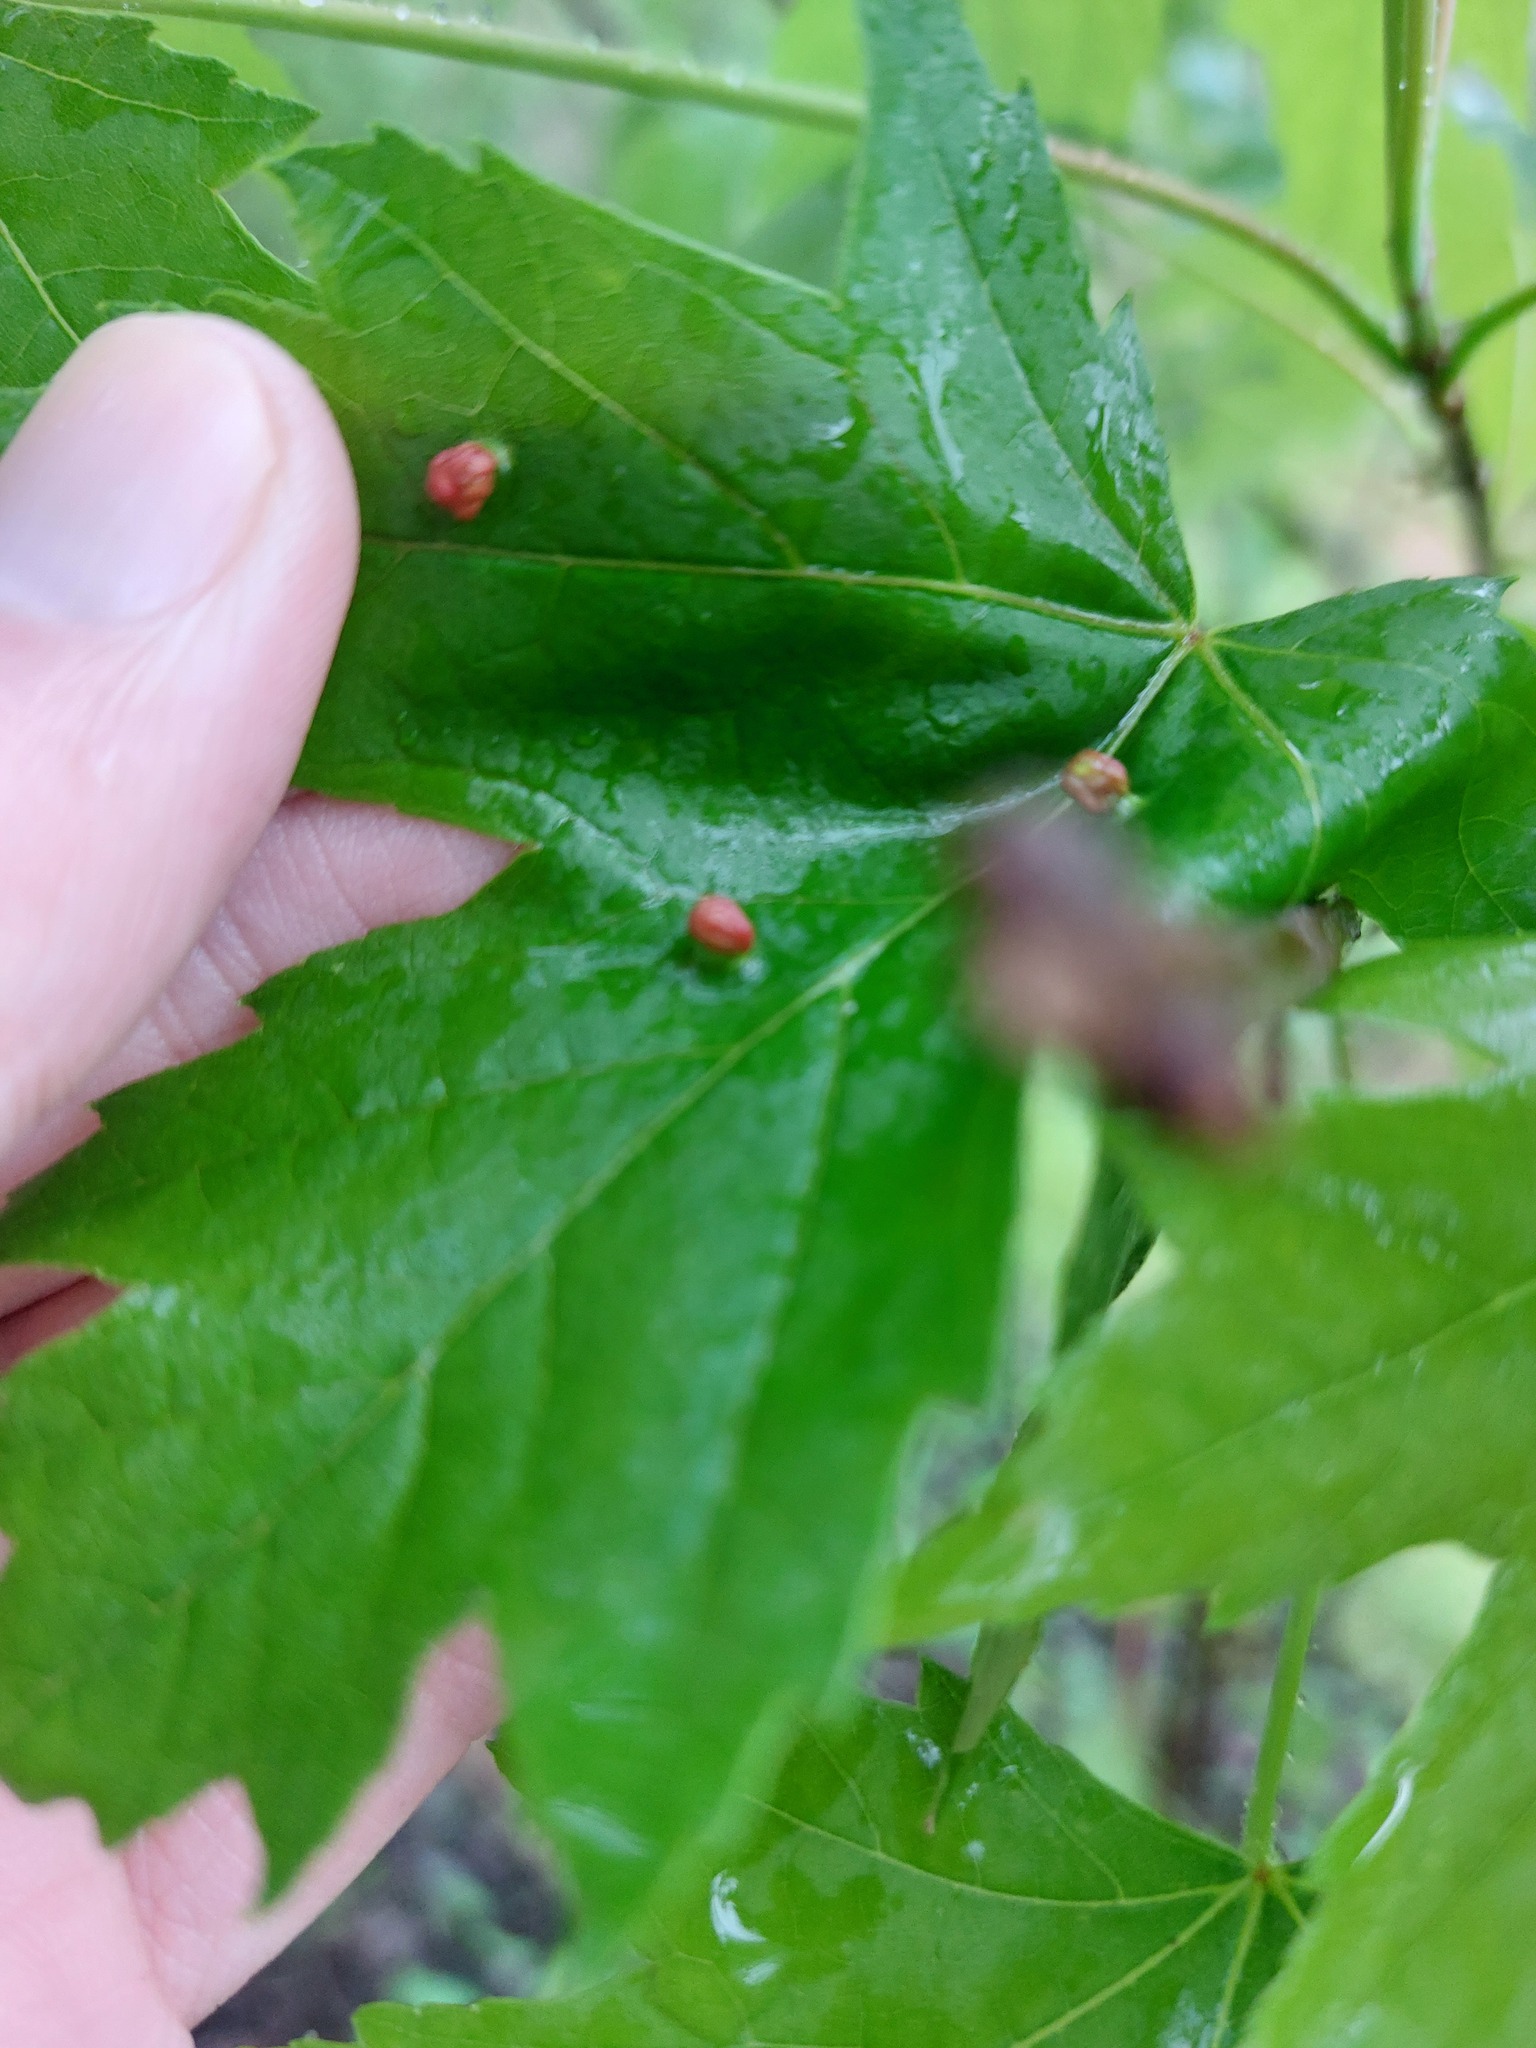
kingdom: Animalia
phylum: Arthropoda
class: Arachnida
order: Trombidiformes
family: Eriophyidae
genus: Vasates
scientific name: Vasates quadripedes
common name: Maple bladder gall mite
